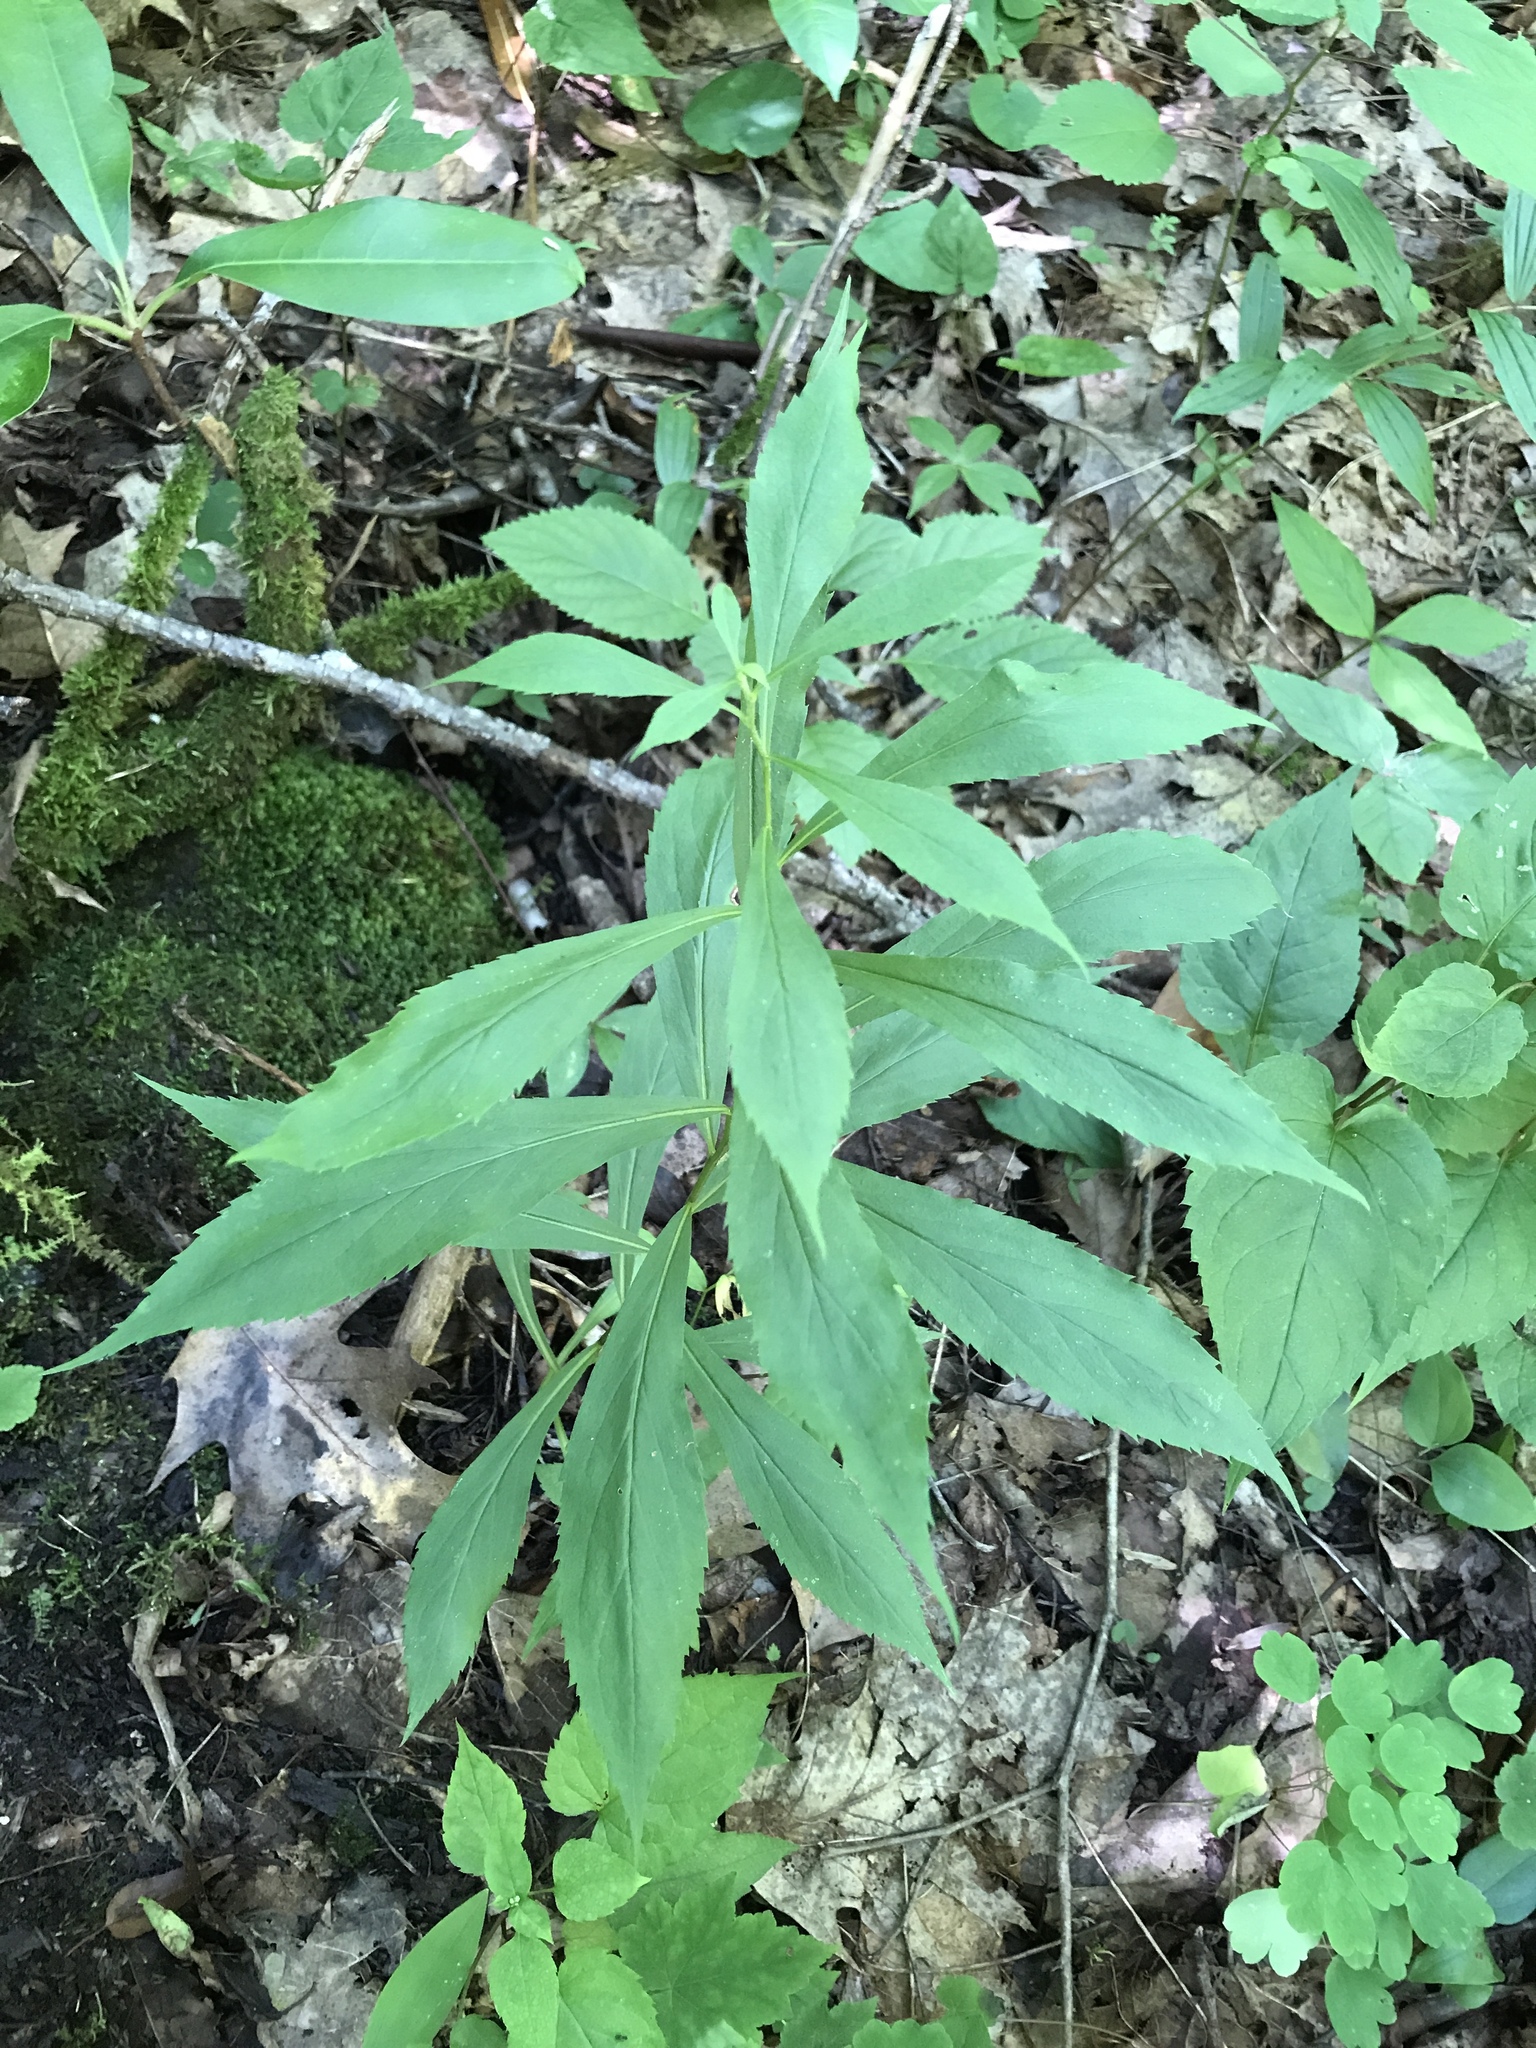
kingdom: Plantae
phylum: Tracheophyta
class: Magnoliopsida
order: Asterales
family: Asteraceae
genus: Solidago
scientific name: Solidago curtisii
